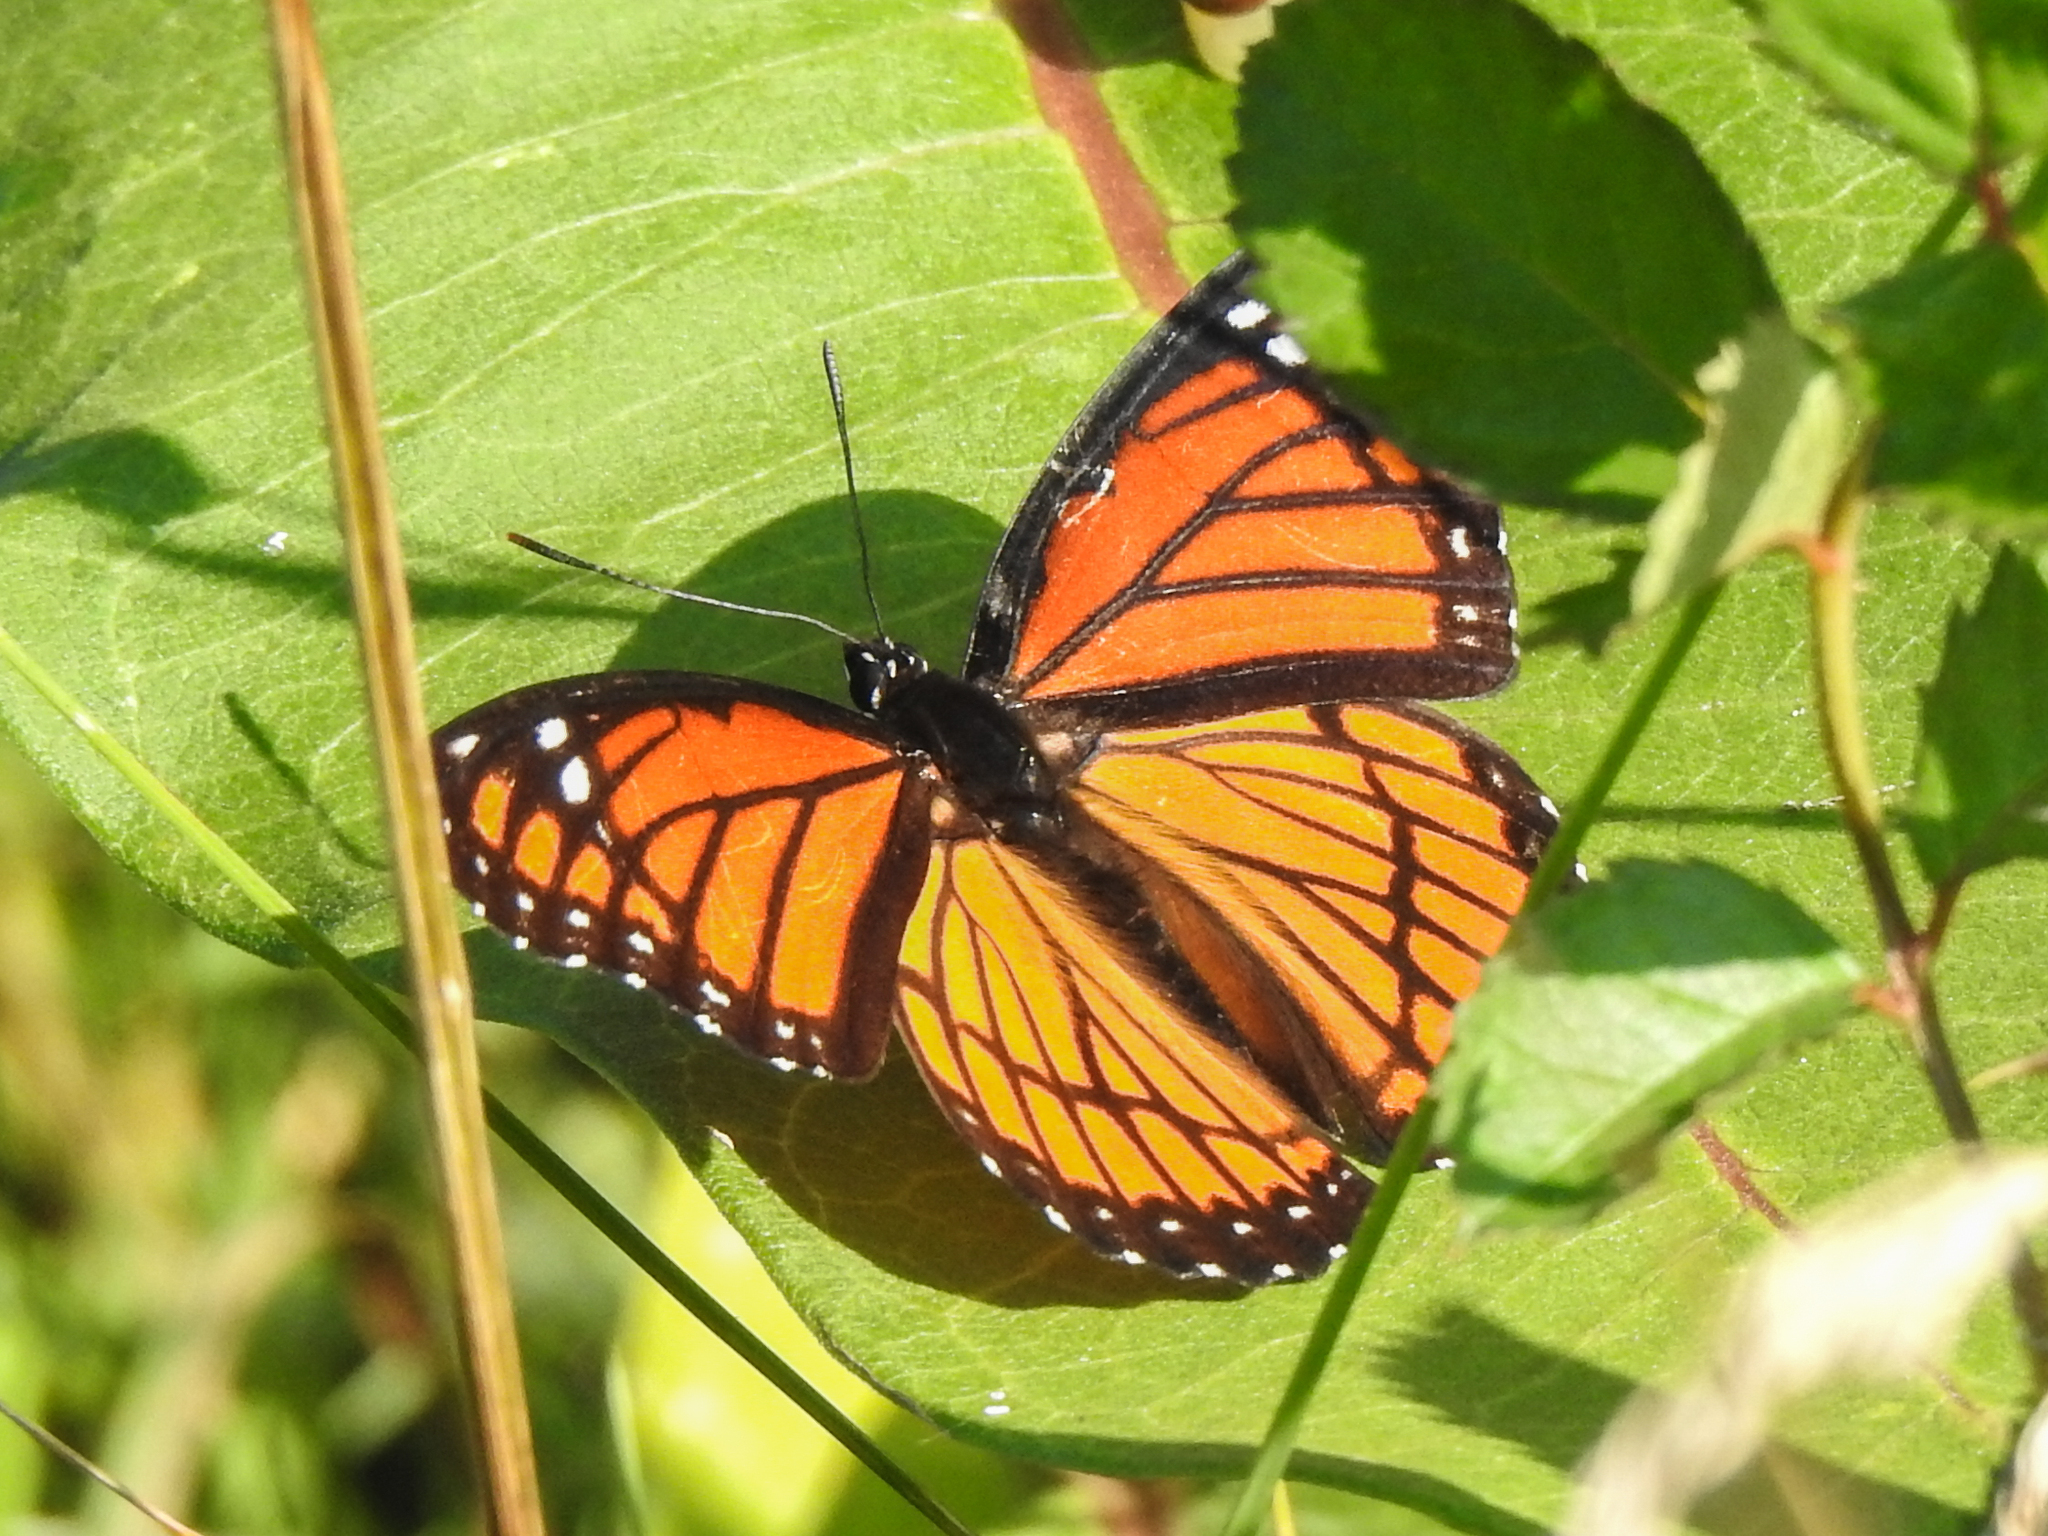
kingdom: Animalia
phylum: Arthropoda
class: Insecta
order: Lepidoptera
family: Nymphalidae
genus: Limenitis
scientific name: Limenitis archippus
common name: Viceroy
